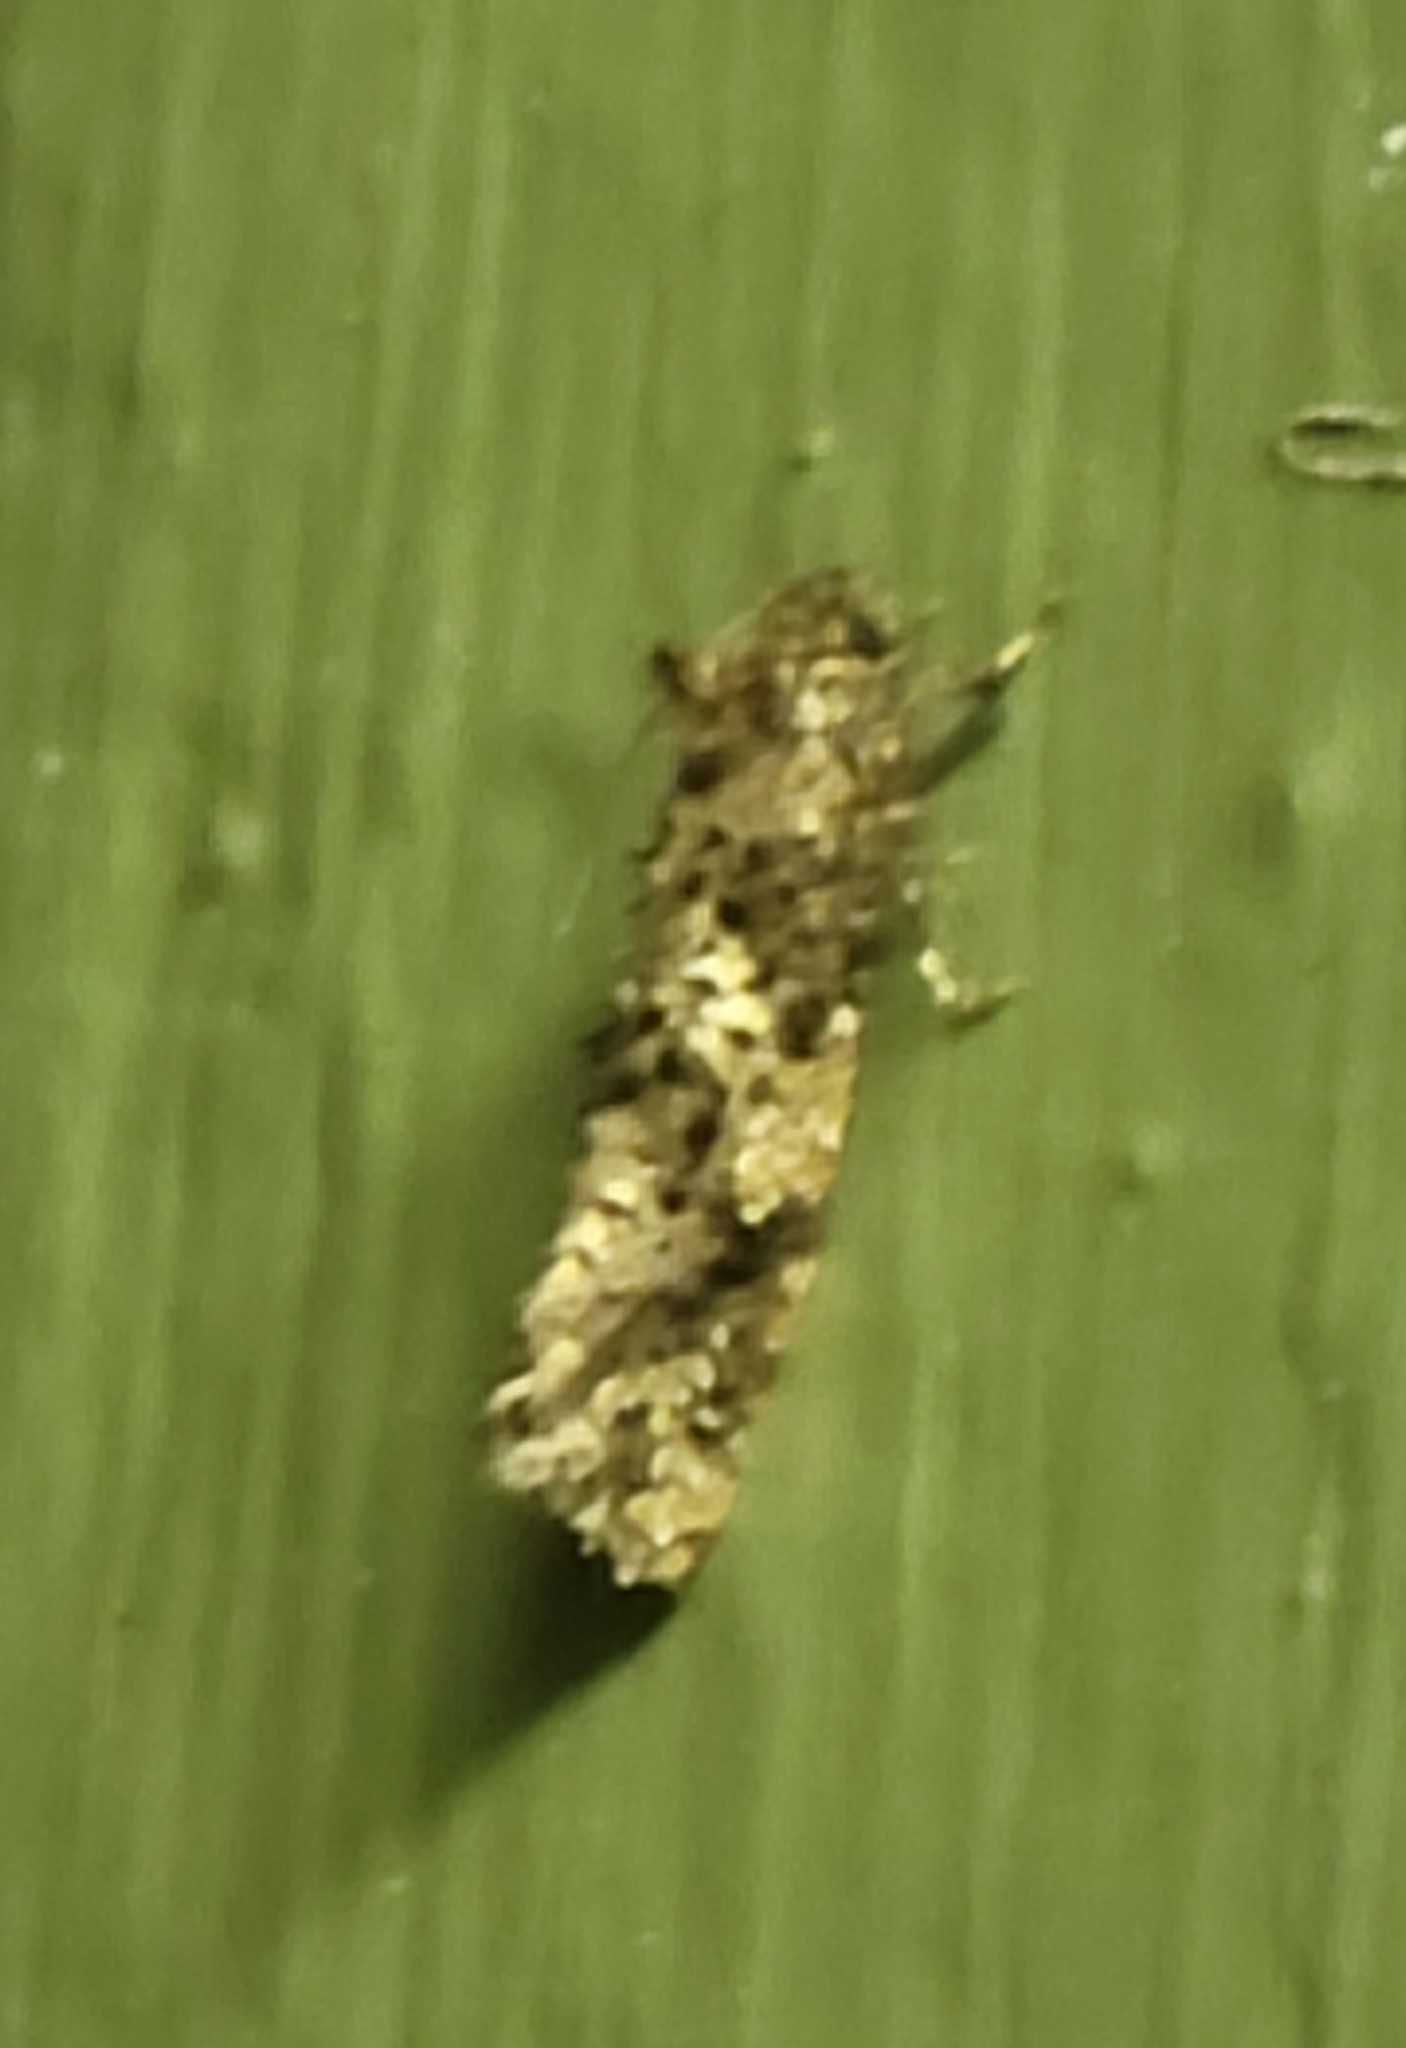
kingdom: Animalia
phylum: Arthropoda
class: Insecta
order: Lepidoptera
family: Tineidae
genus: Acrolophus
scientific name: Acrolophus cressoni
